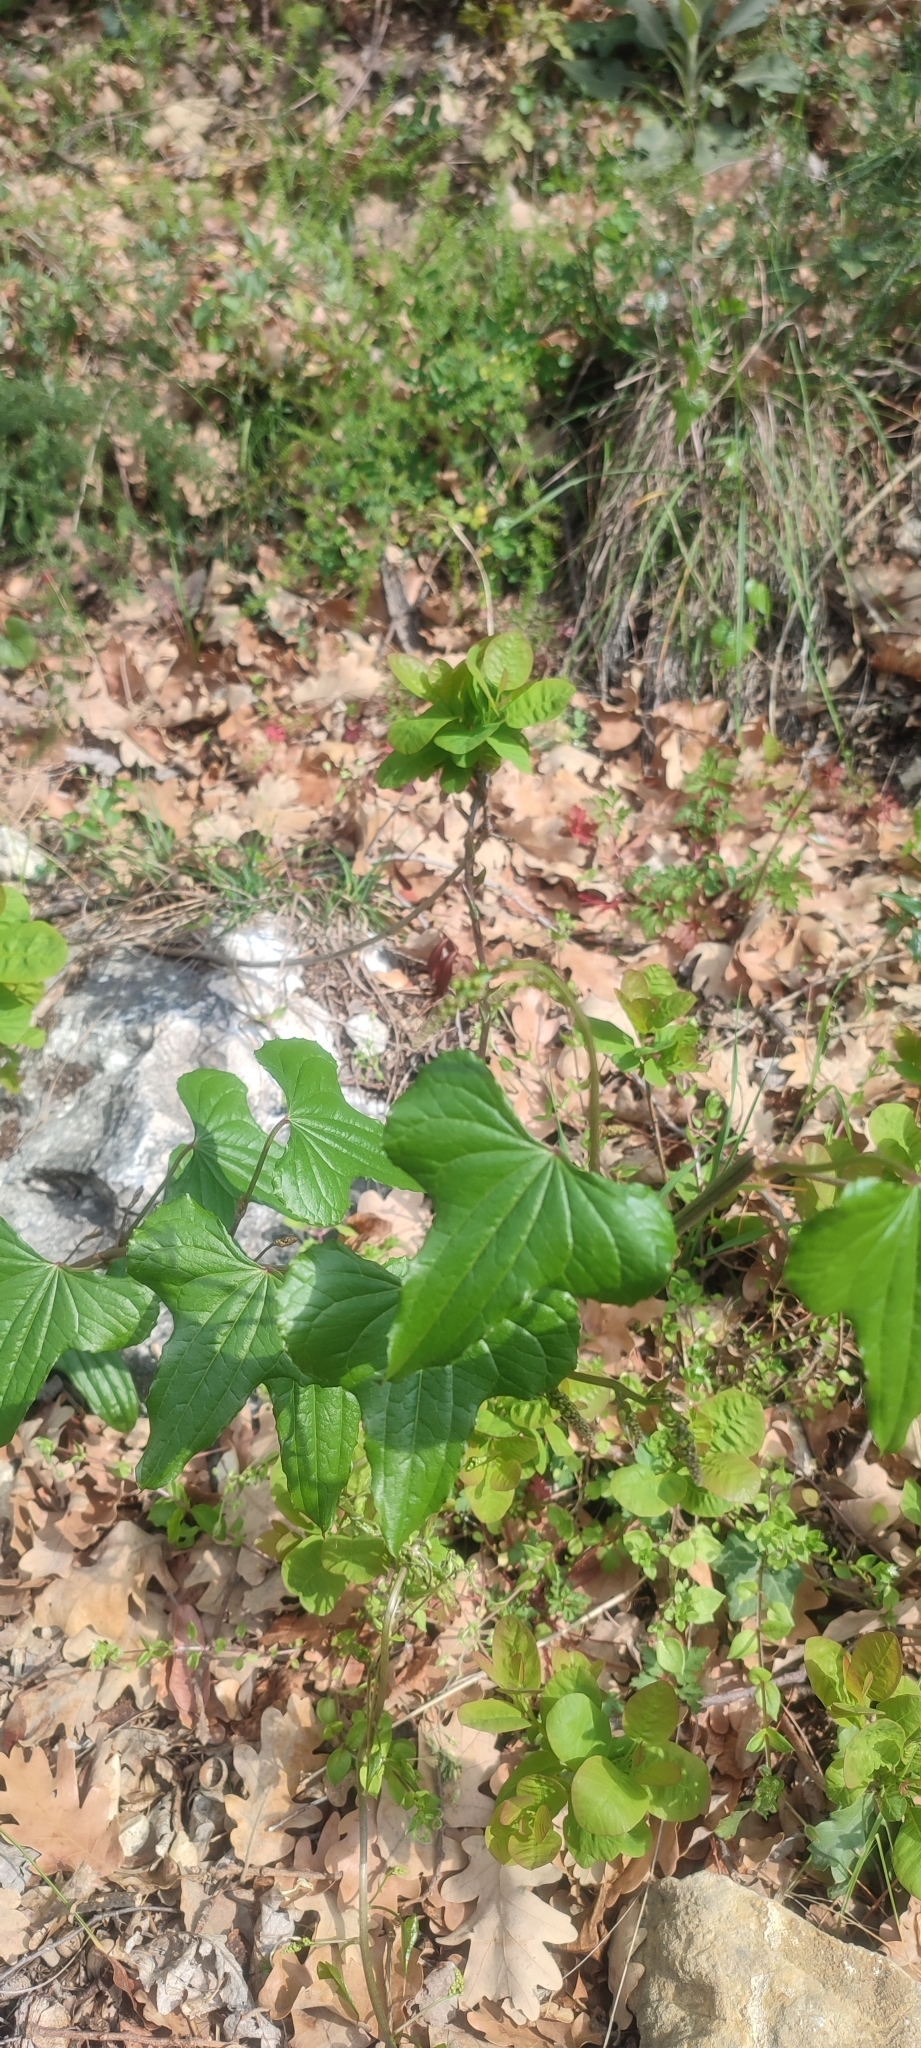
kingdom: Plantae
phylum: Tracheophyta
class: Liliopsida
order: Dioscoreales
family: Dioscoreaceae
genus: Dioscorea
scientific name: Dioscorea communis
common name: Black-bindweed
